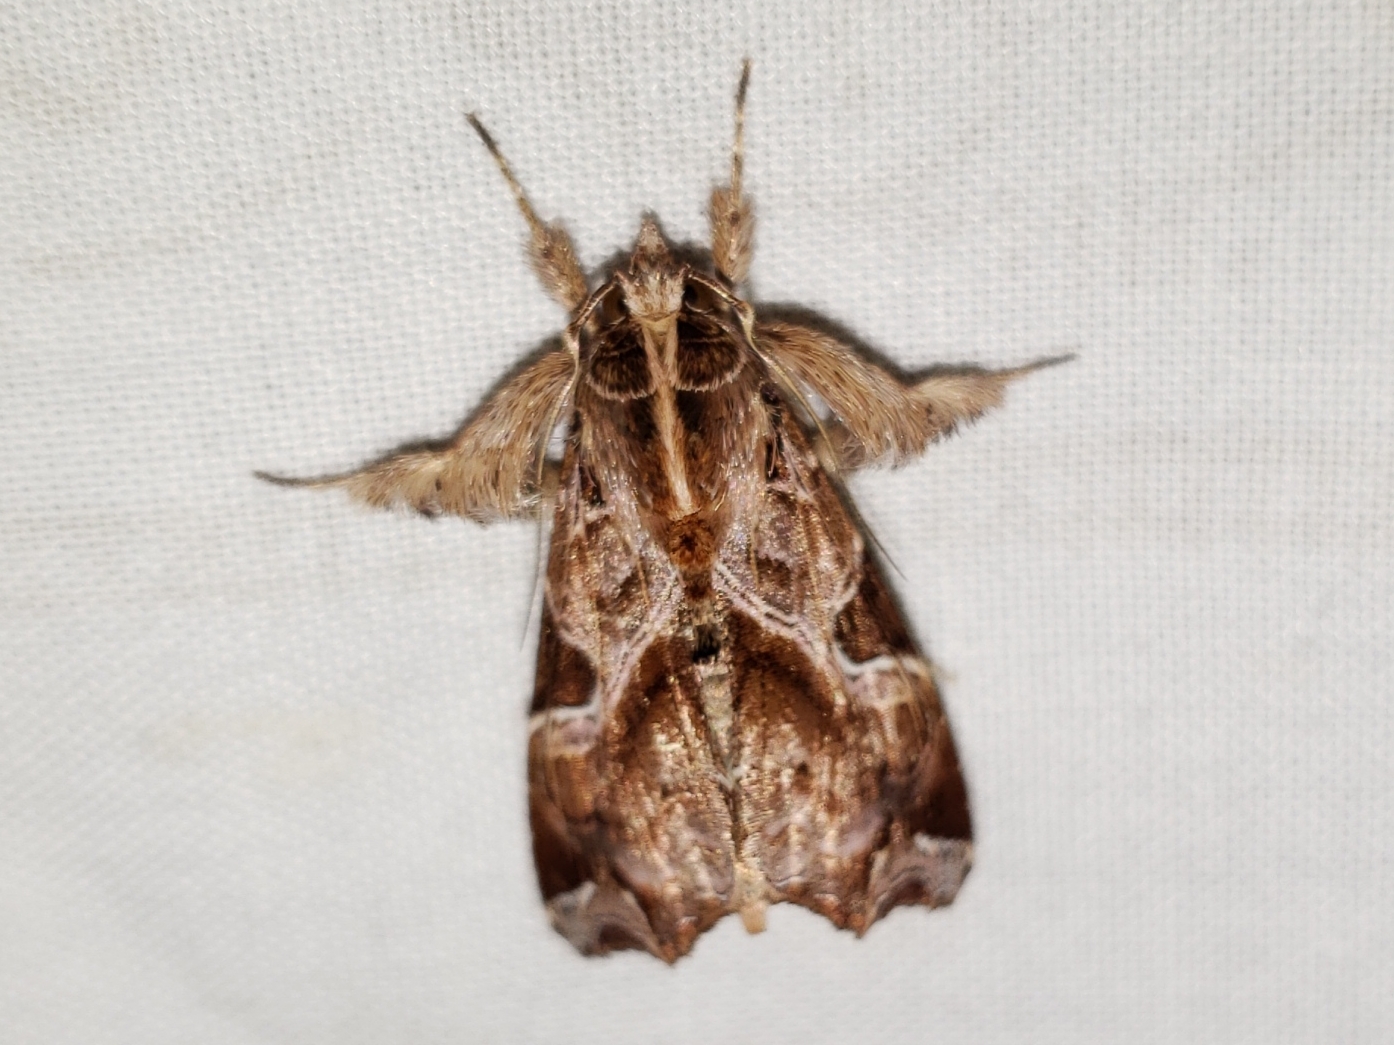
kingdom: Animalia
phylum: Arthropoda
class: Insecta
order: Lepidoptera
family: Noctuidae
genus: Callopistria
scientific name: Callopistria floridensis
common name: Florida fern moth
